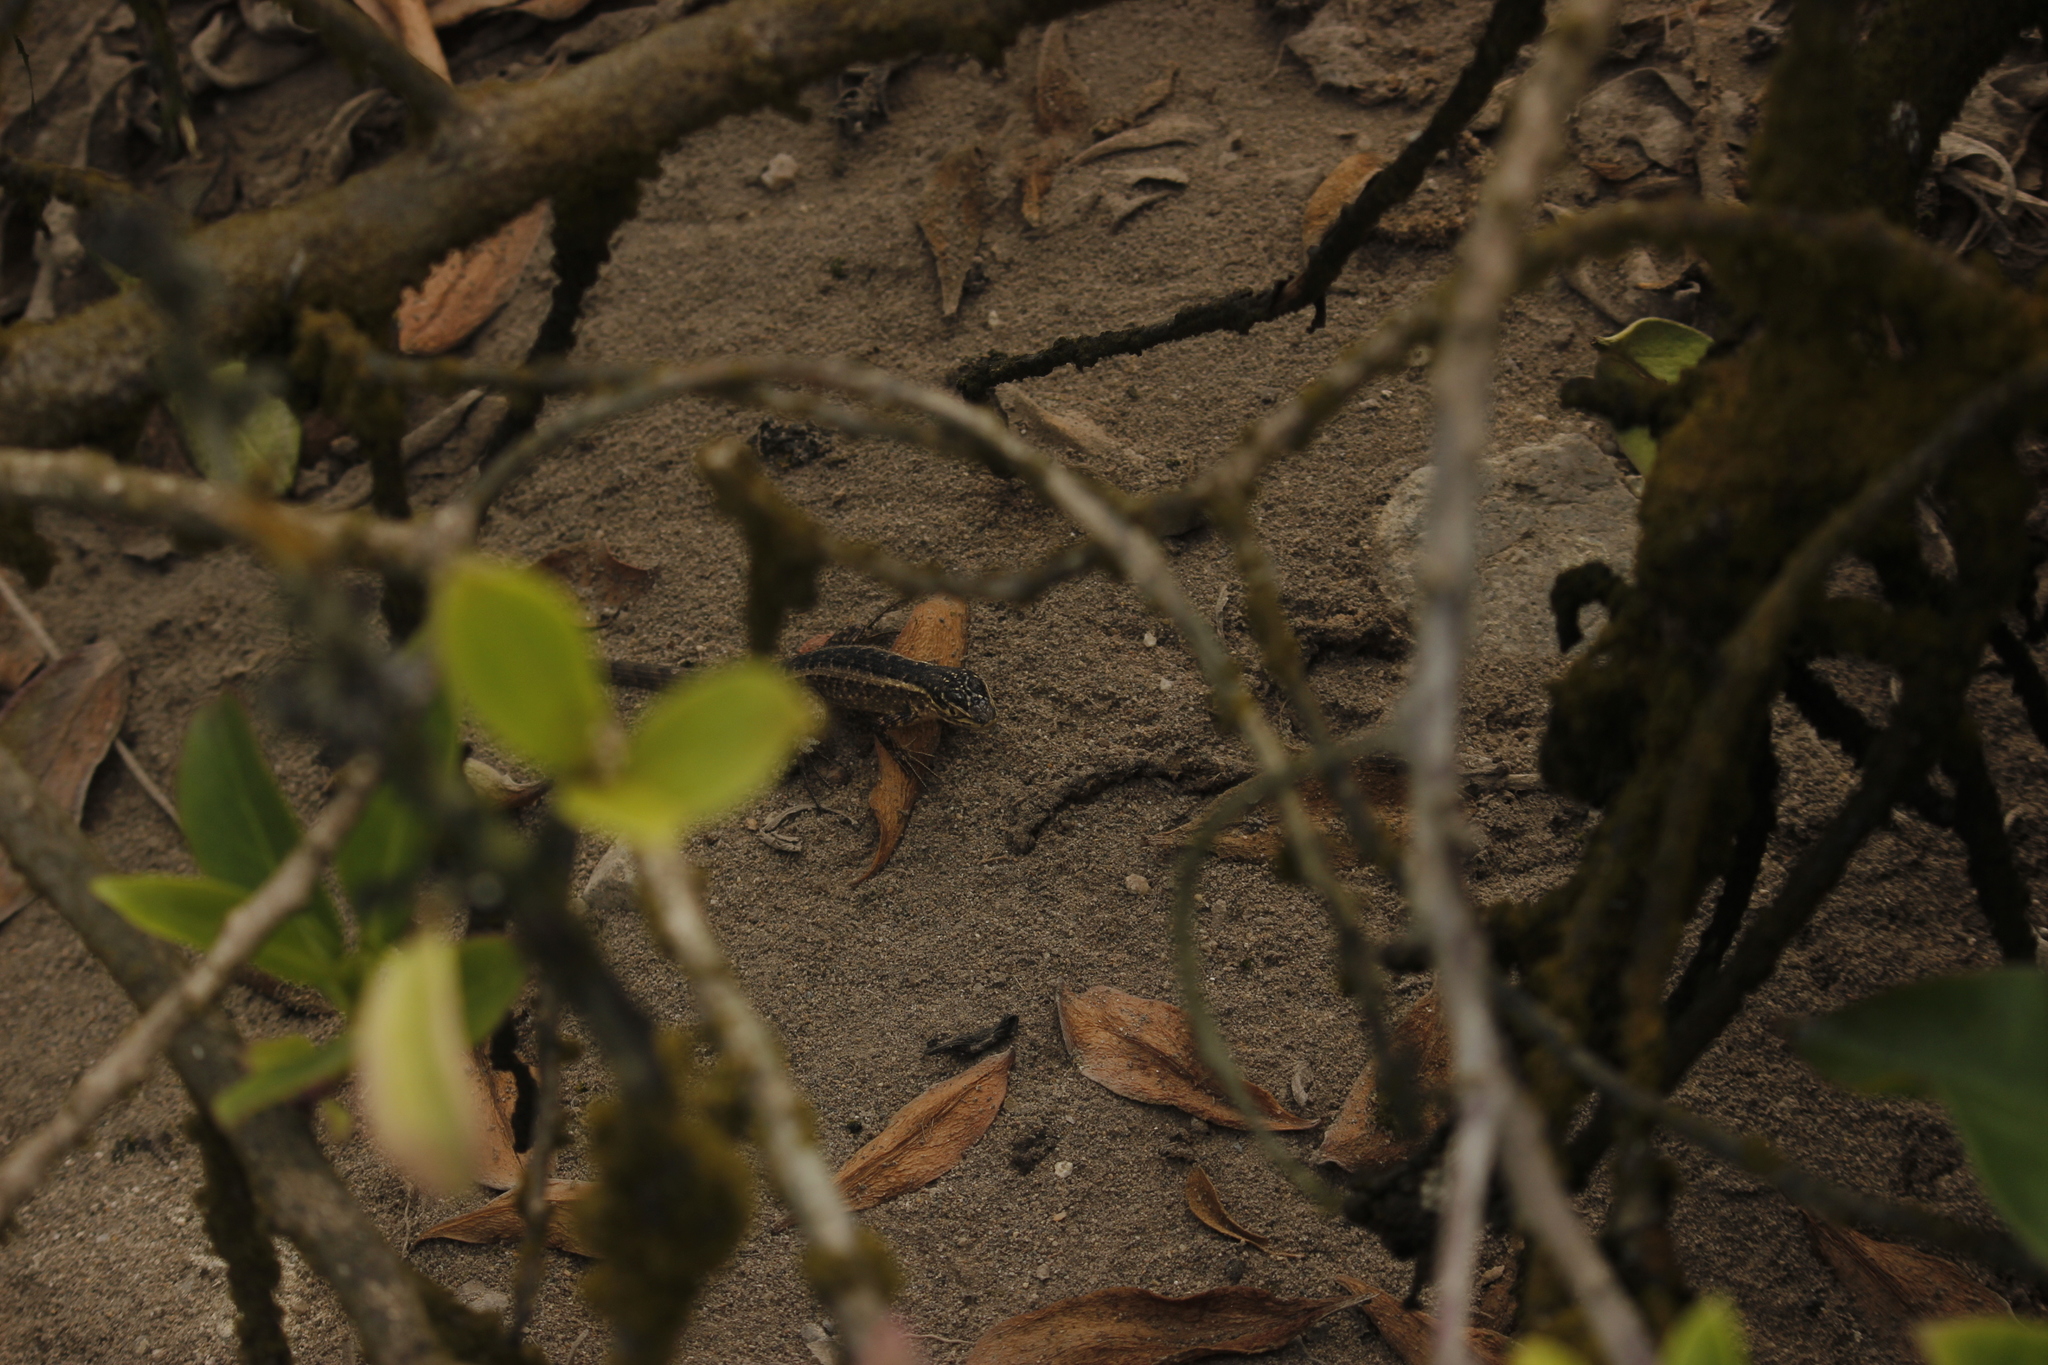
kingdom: Animalia
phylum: Chordata
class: Squamata
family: Tropiduridae
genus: Stenocercus
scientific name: Stenocercus modestus
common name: Modest whorltail iguana
